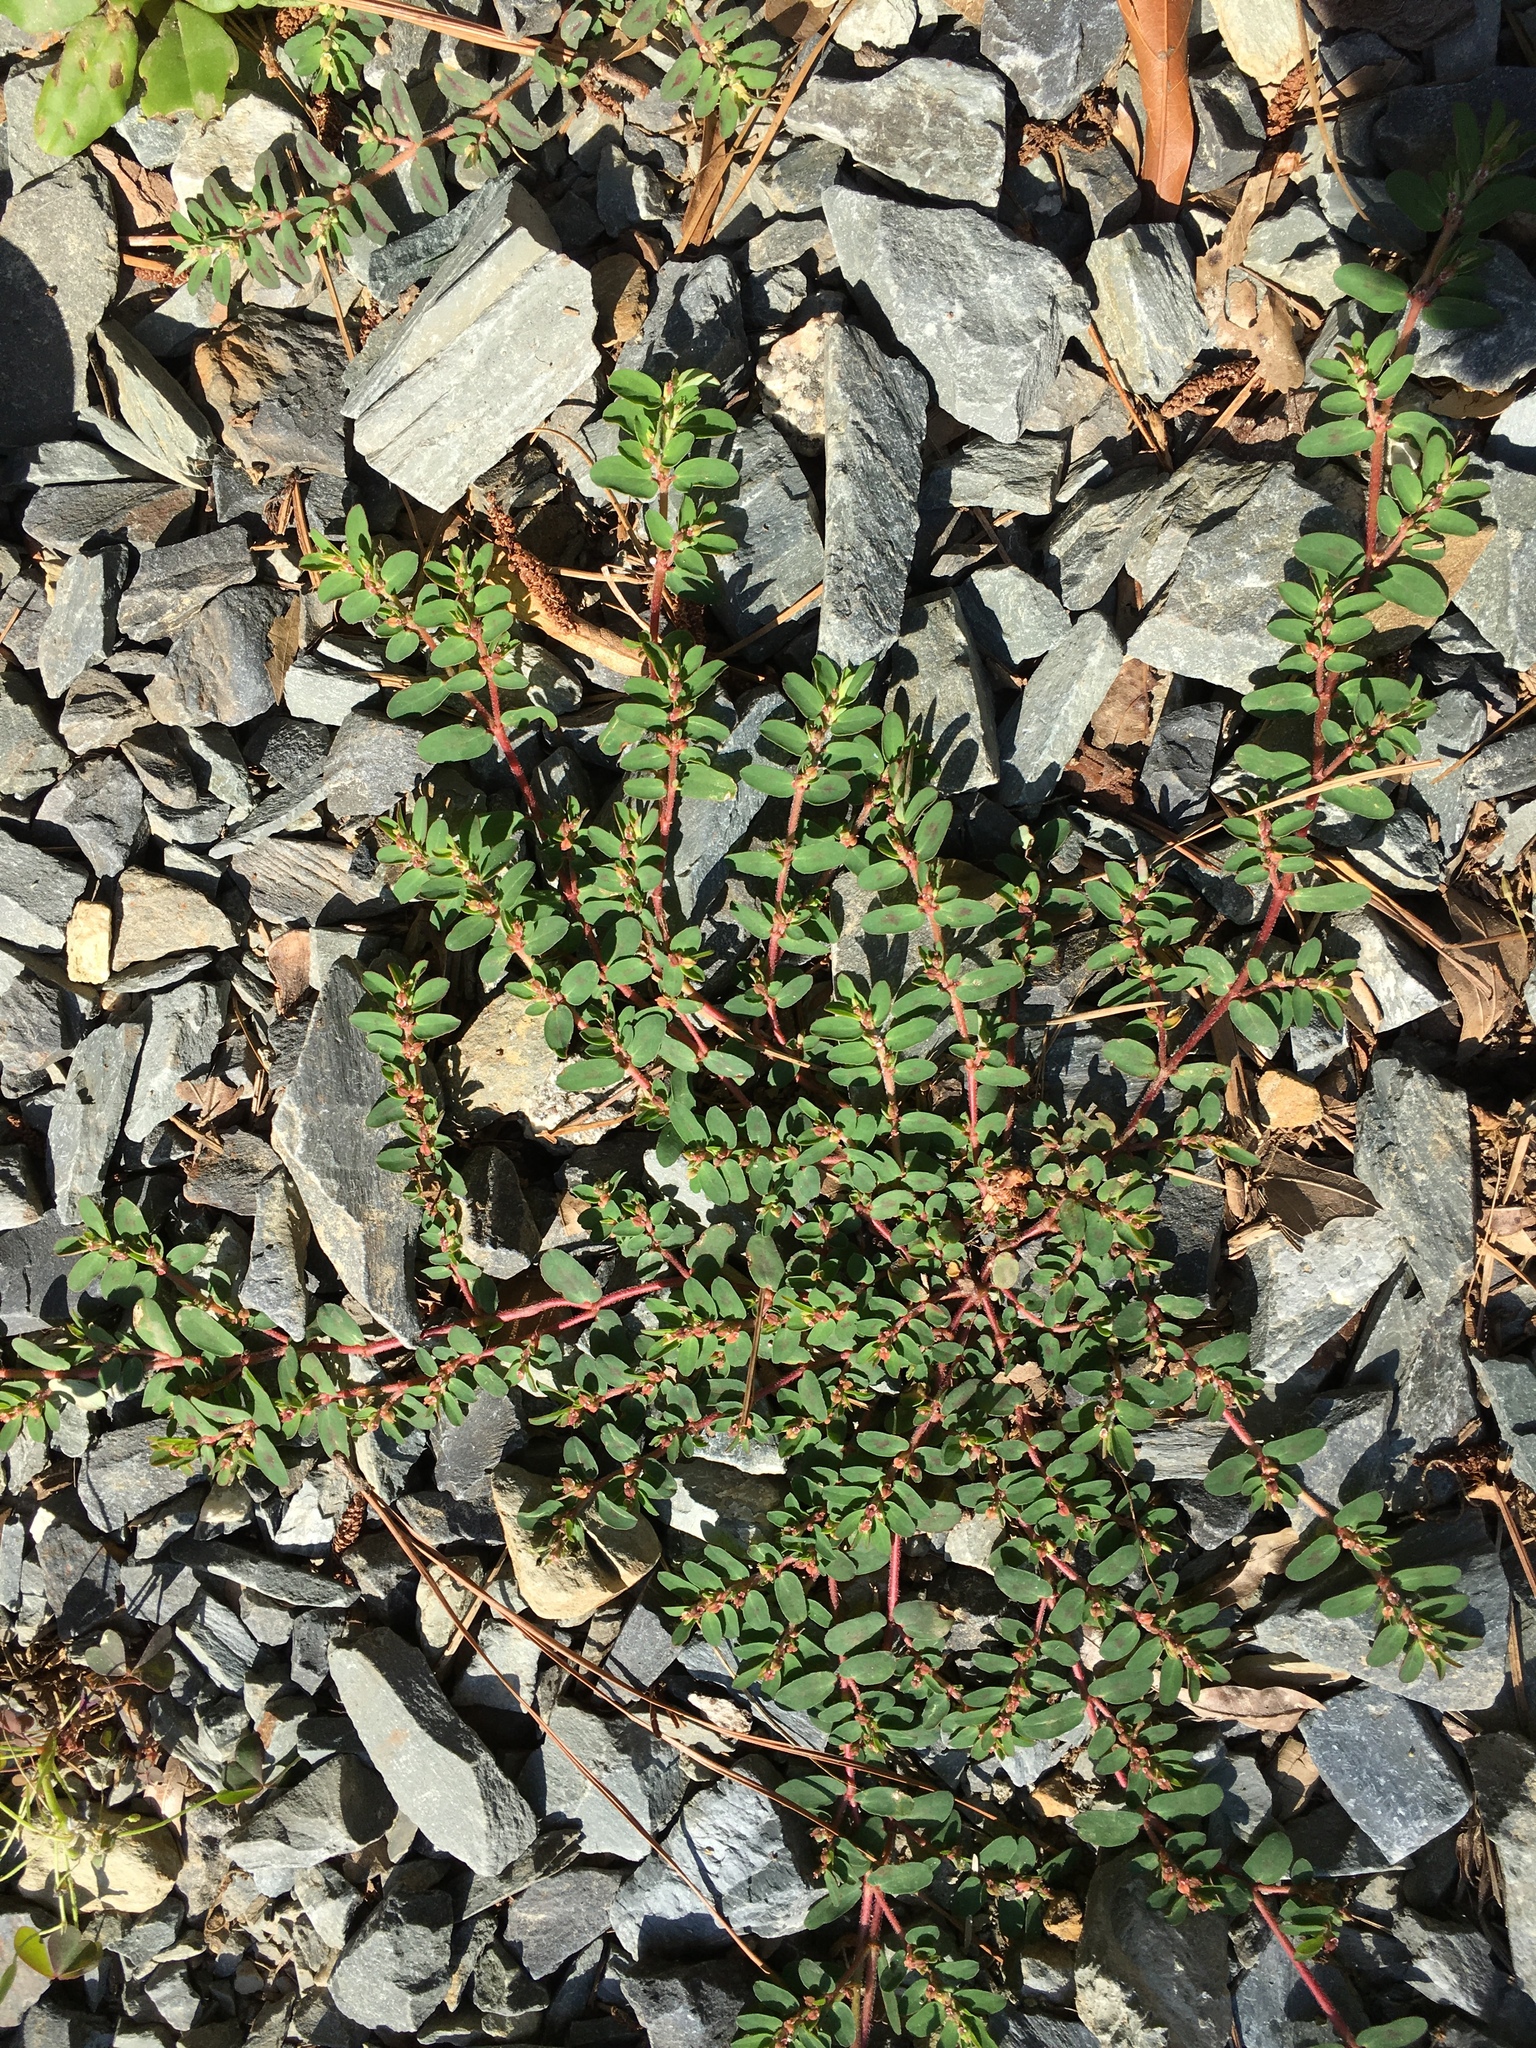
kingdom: Plantae
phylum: Tracheophyta
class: Magnoliopsida
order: Malpighiales
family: Euphorbiaceae
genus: Euphorbia
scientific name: Euphorbia maculata
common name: Spotted spurge
